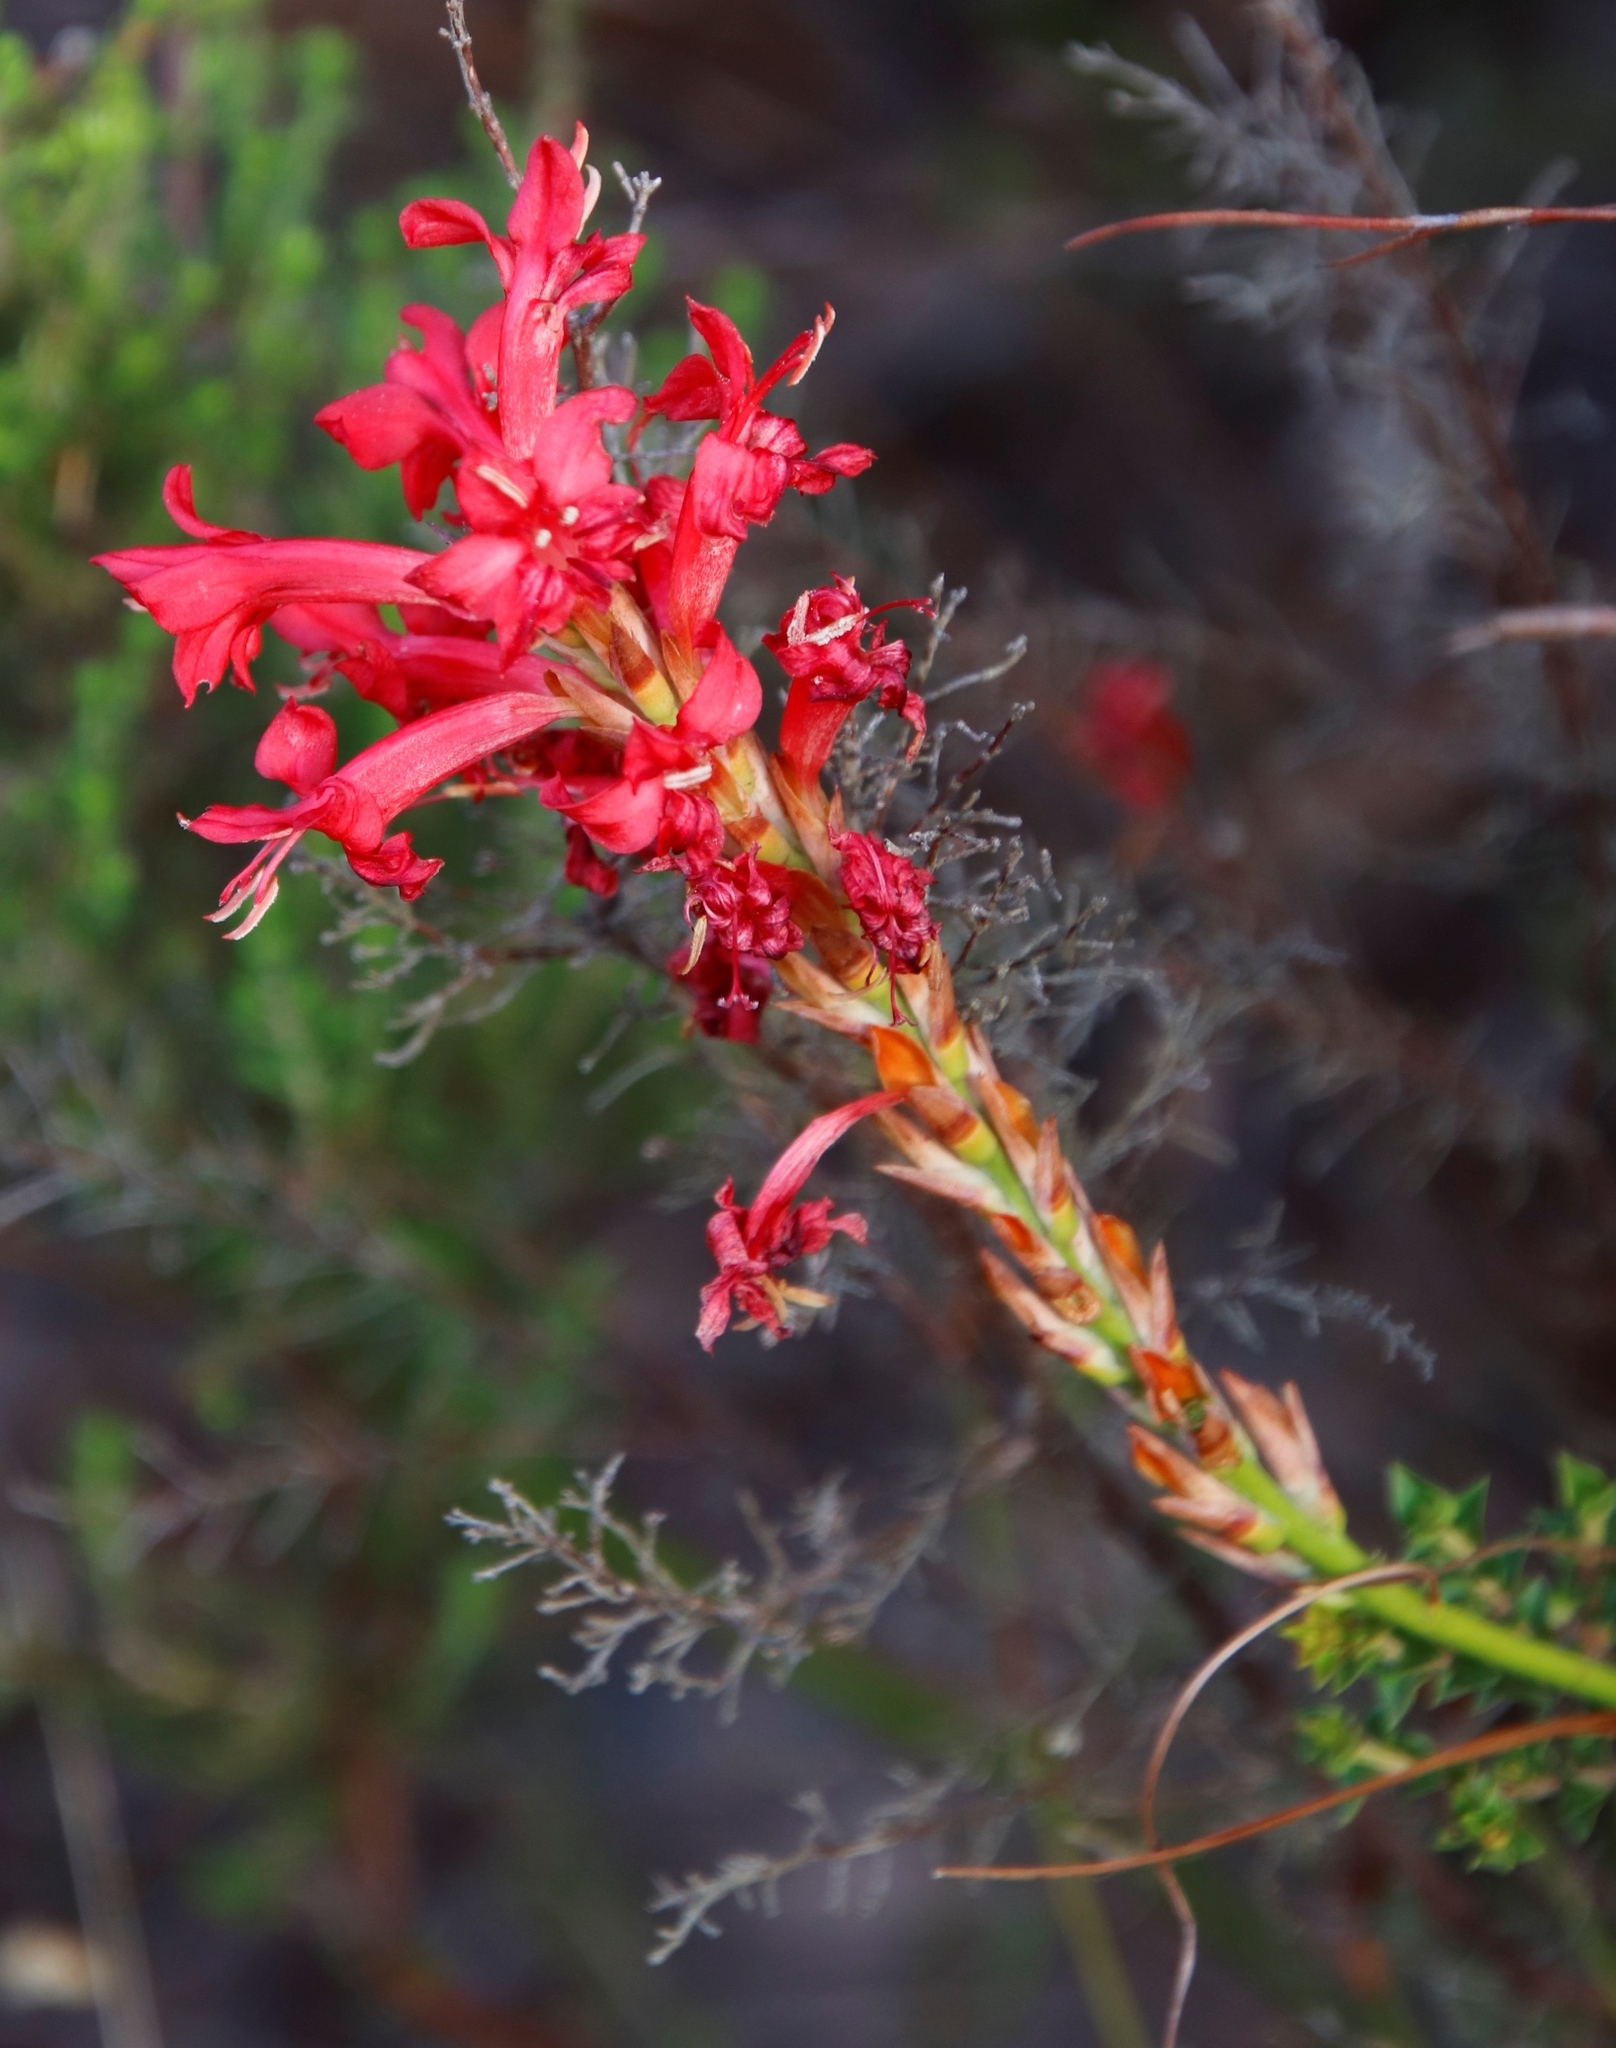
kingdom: Plantae
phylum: Tracheophyta
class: Liliopsida
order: Asparagales
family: Iridaceae
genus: Tritoniopsis
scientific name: Tritoniopsis triticea
